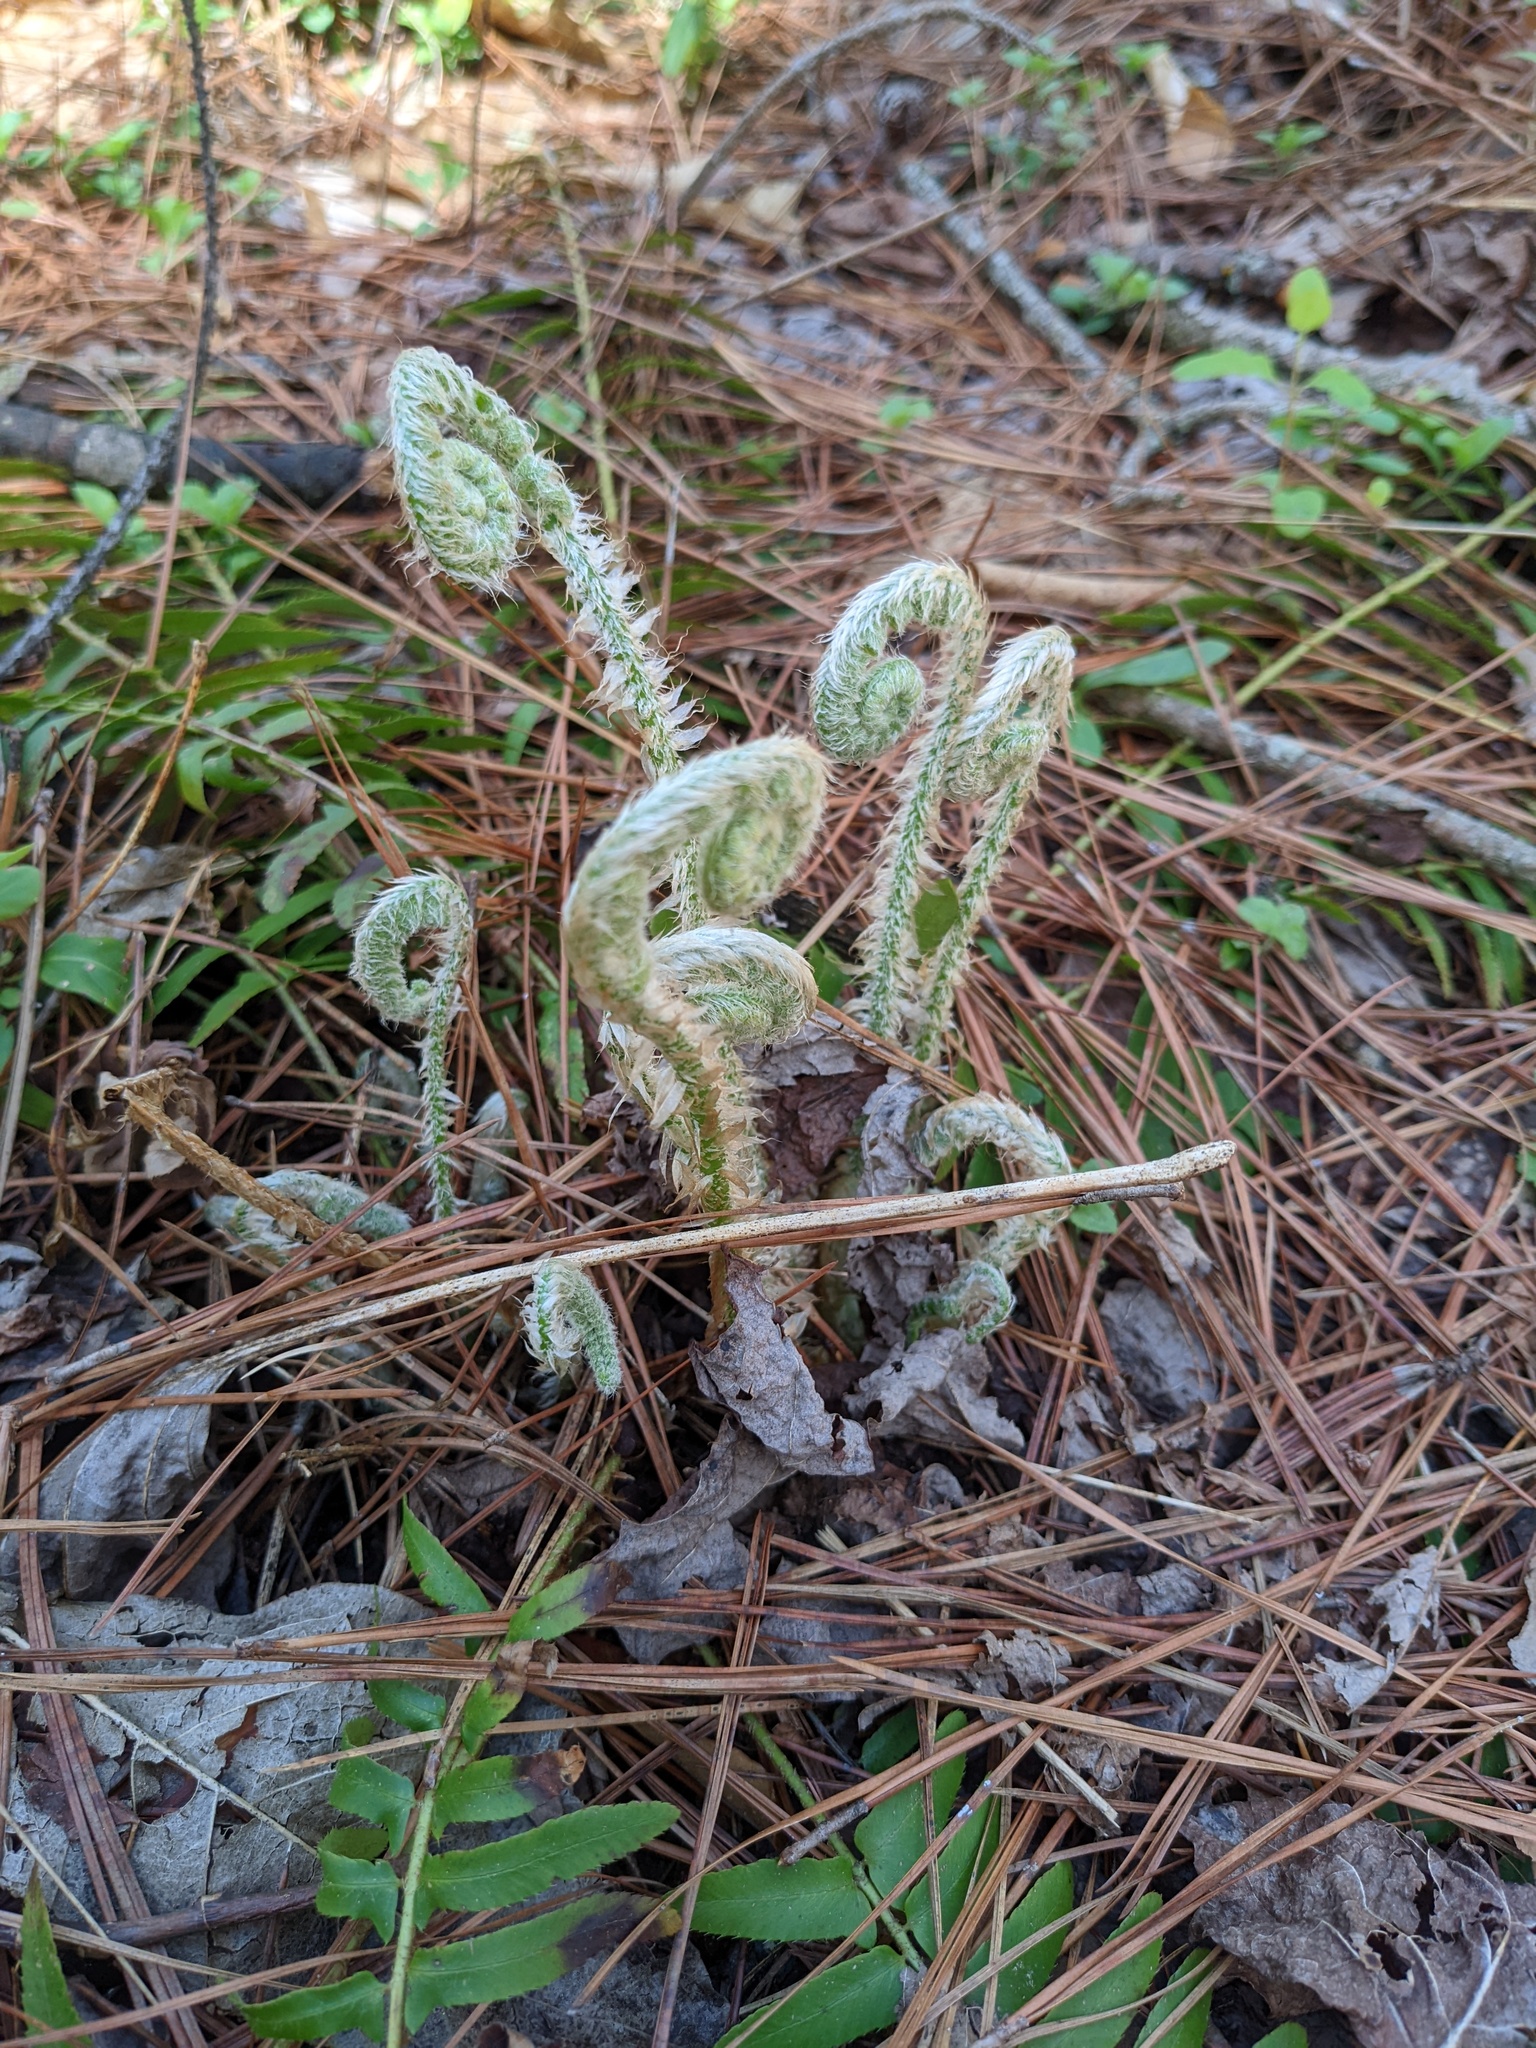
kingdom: Plantae
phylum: Tracheophyta
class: Polypodiopsida
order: Polypodiales
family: Dryopteridaceae
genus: Polystichum
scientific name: Polystichum acrostichoides
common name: Christmas fern
